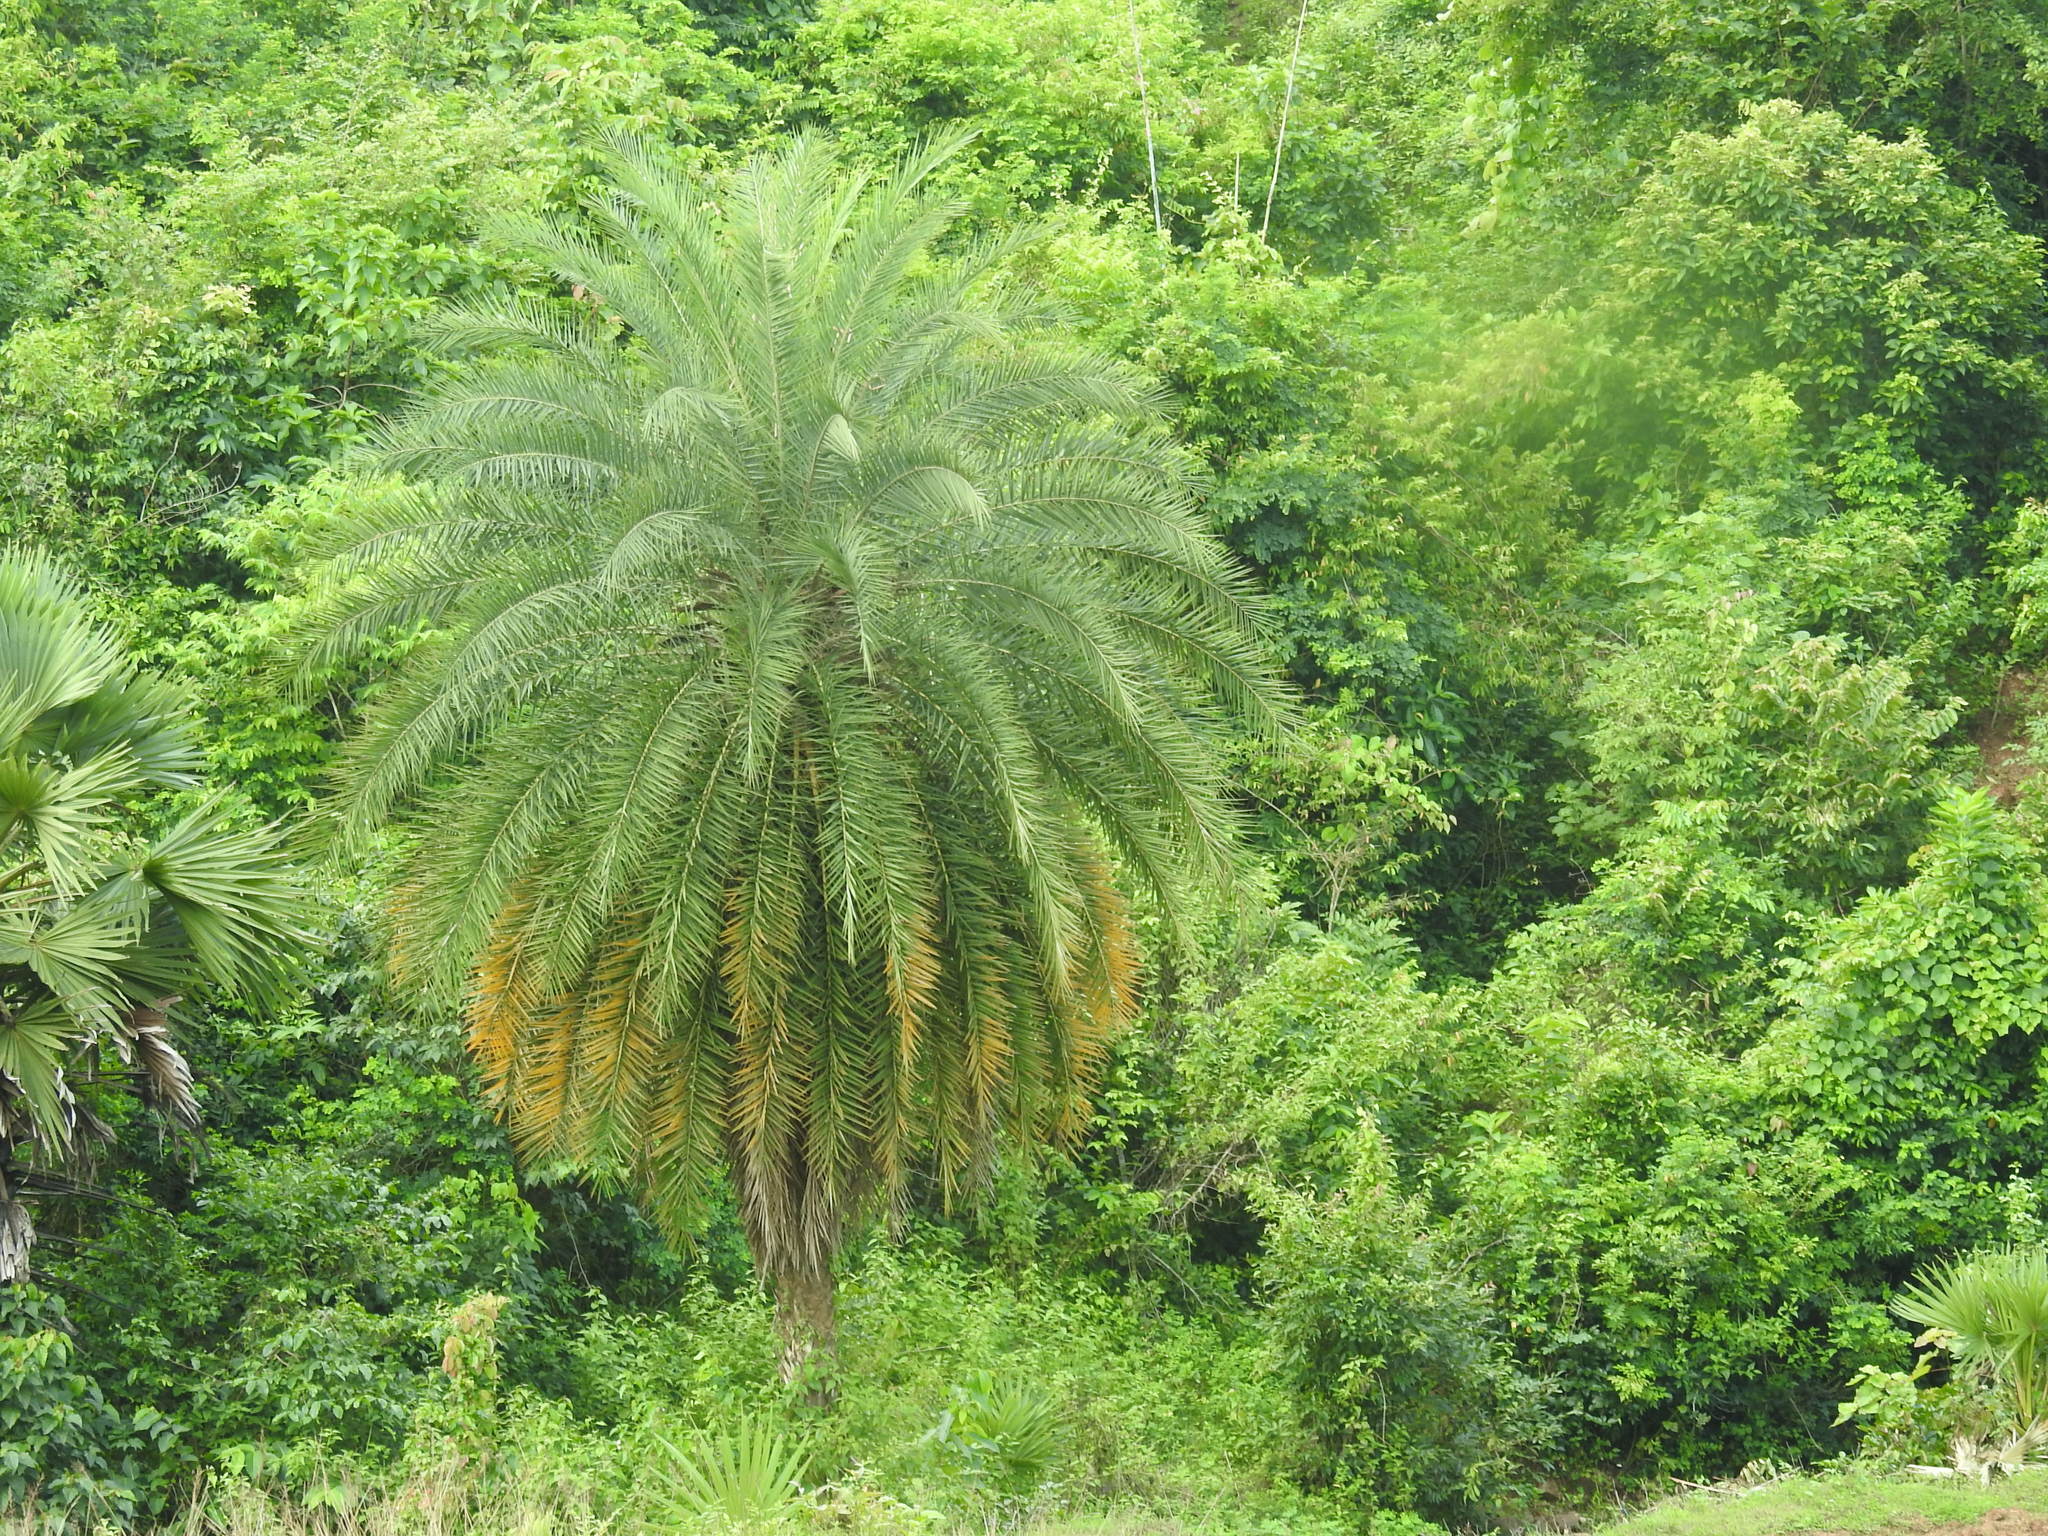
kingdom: Plantae
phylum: Tracheophyta
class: Liliopsida
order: Arecales
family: Arecaceae
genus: Phoenix
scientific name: Phoenix sylvestris
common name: Wild date palm
